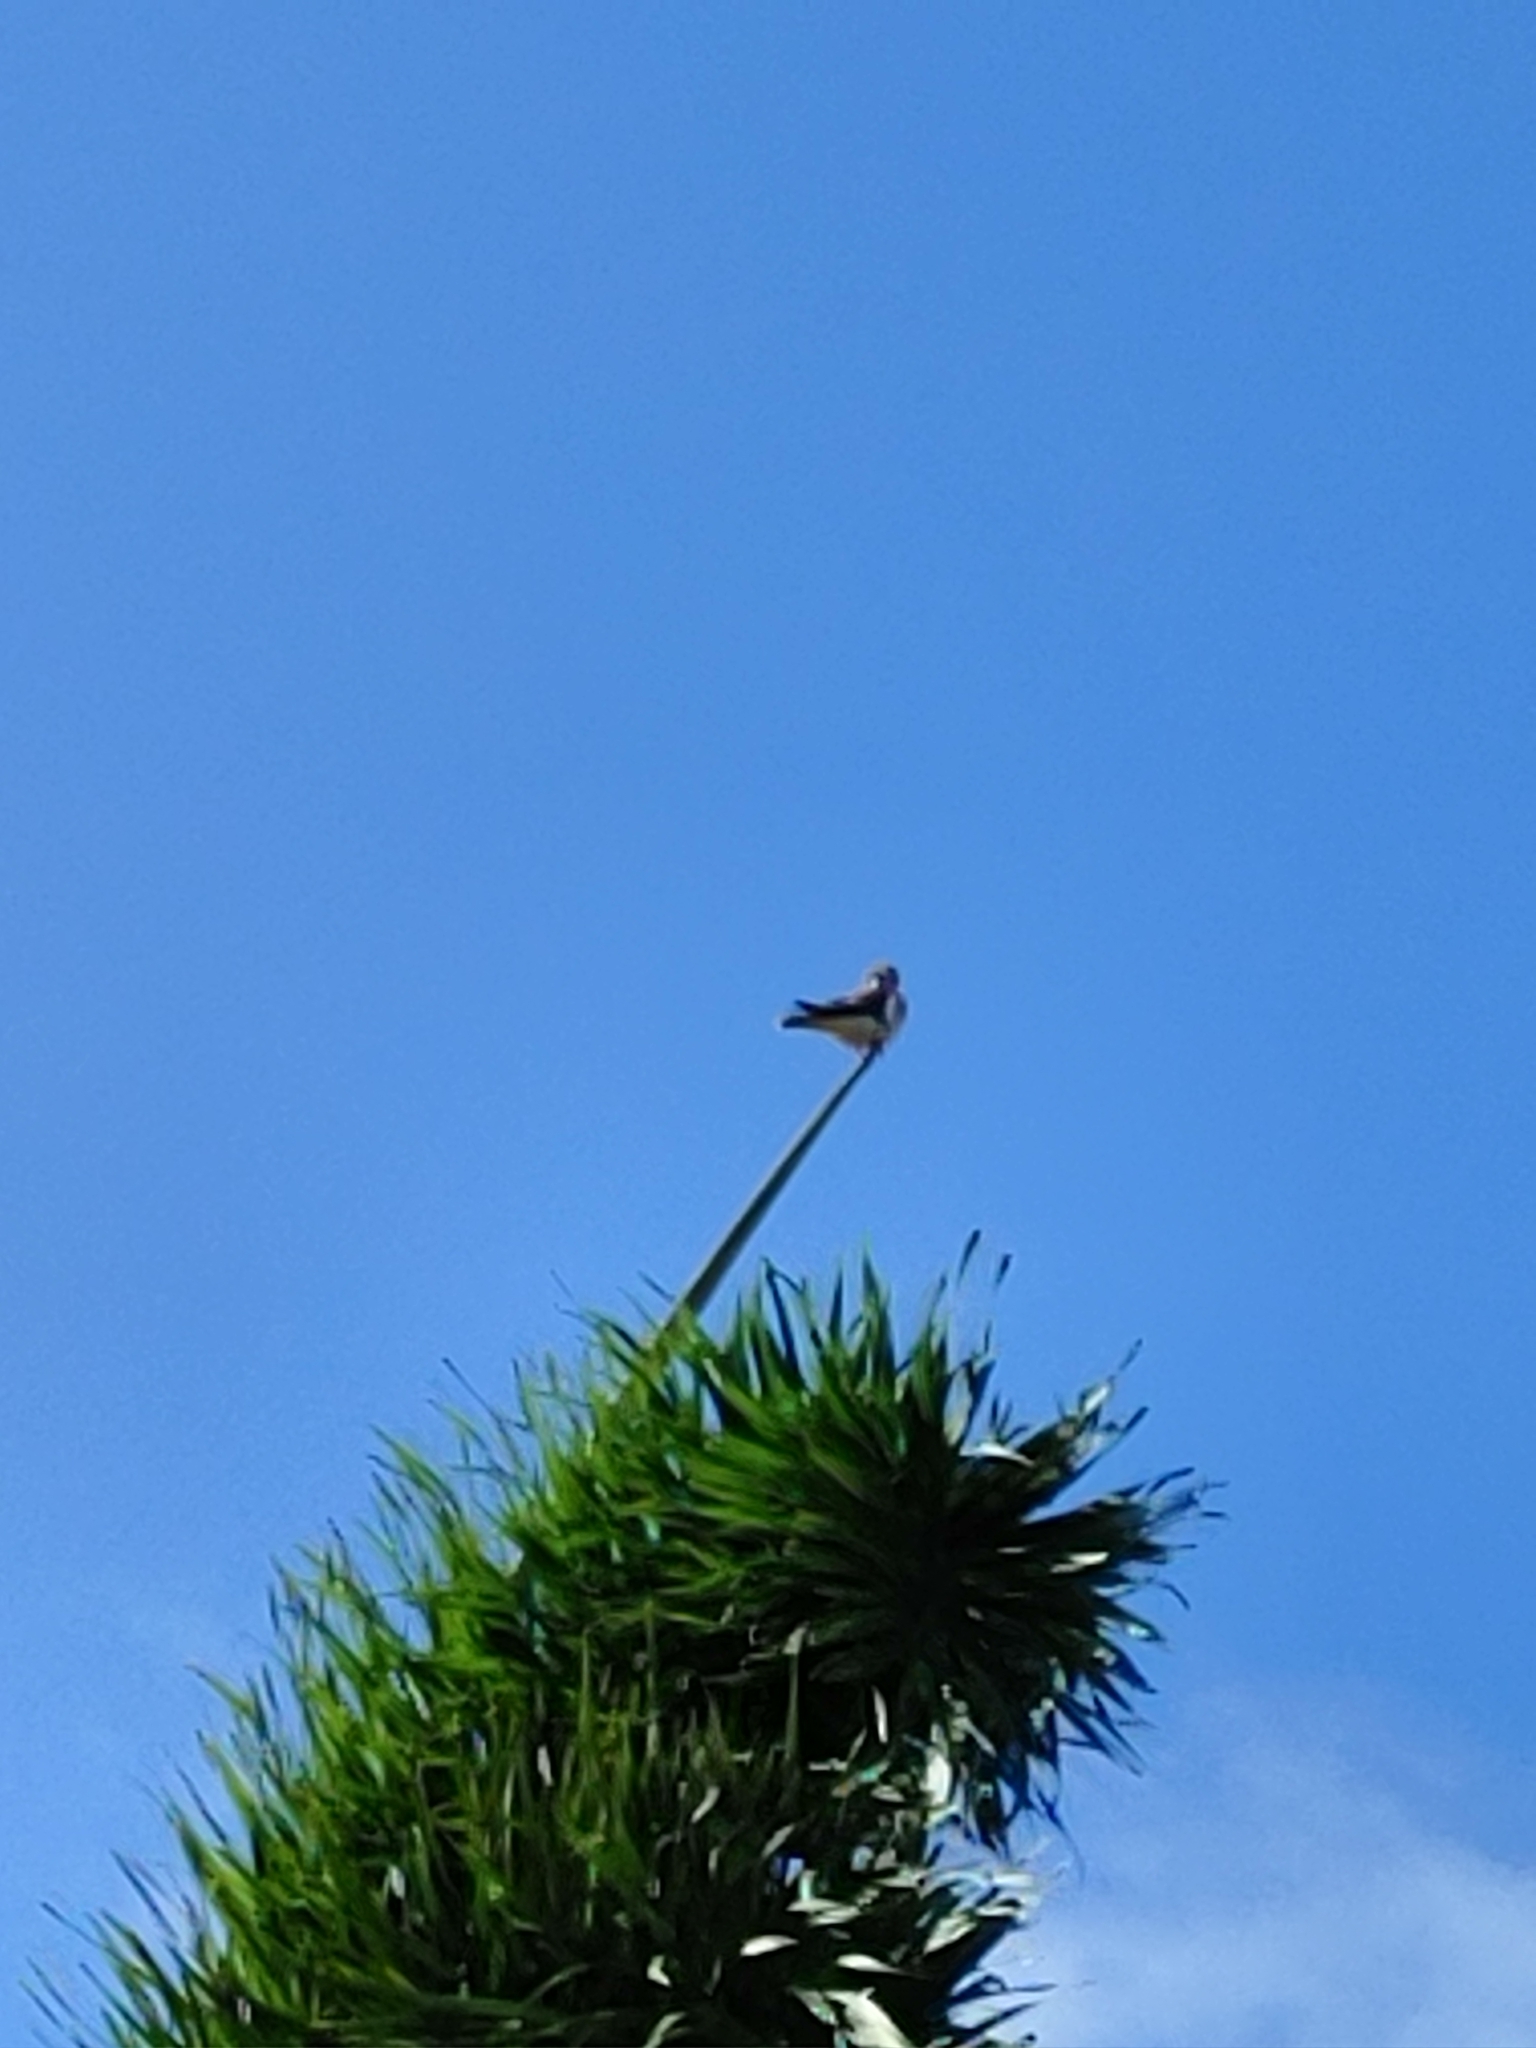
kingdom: Animalia
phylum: Chordata
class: Aves
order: Falconiformes
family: Falconidae
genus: Falco
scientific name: Falco sparverius
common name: American kestrel
